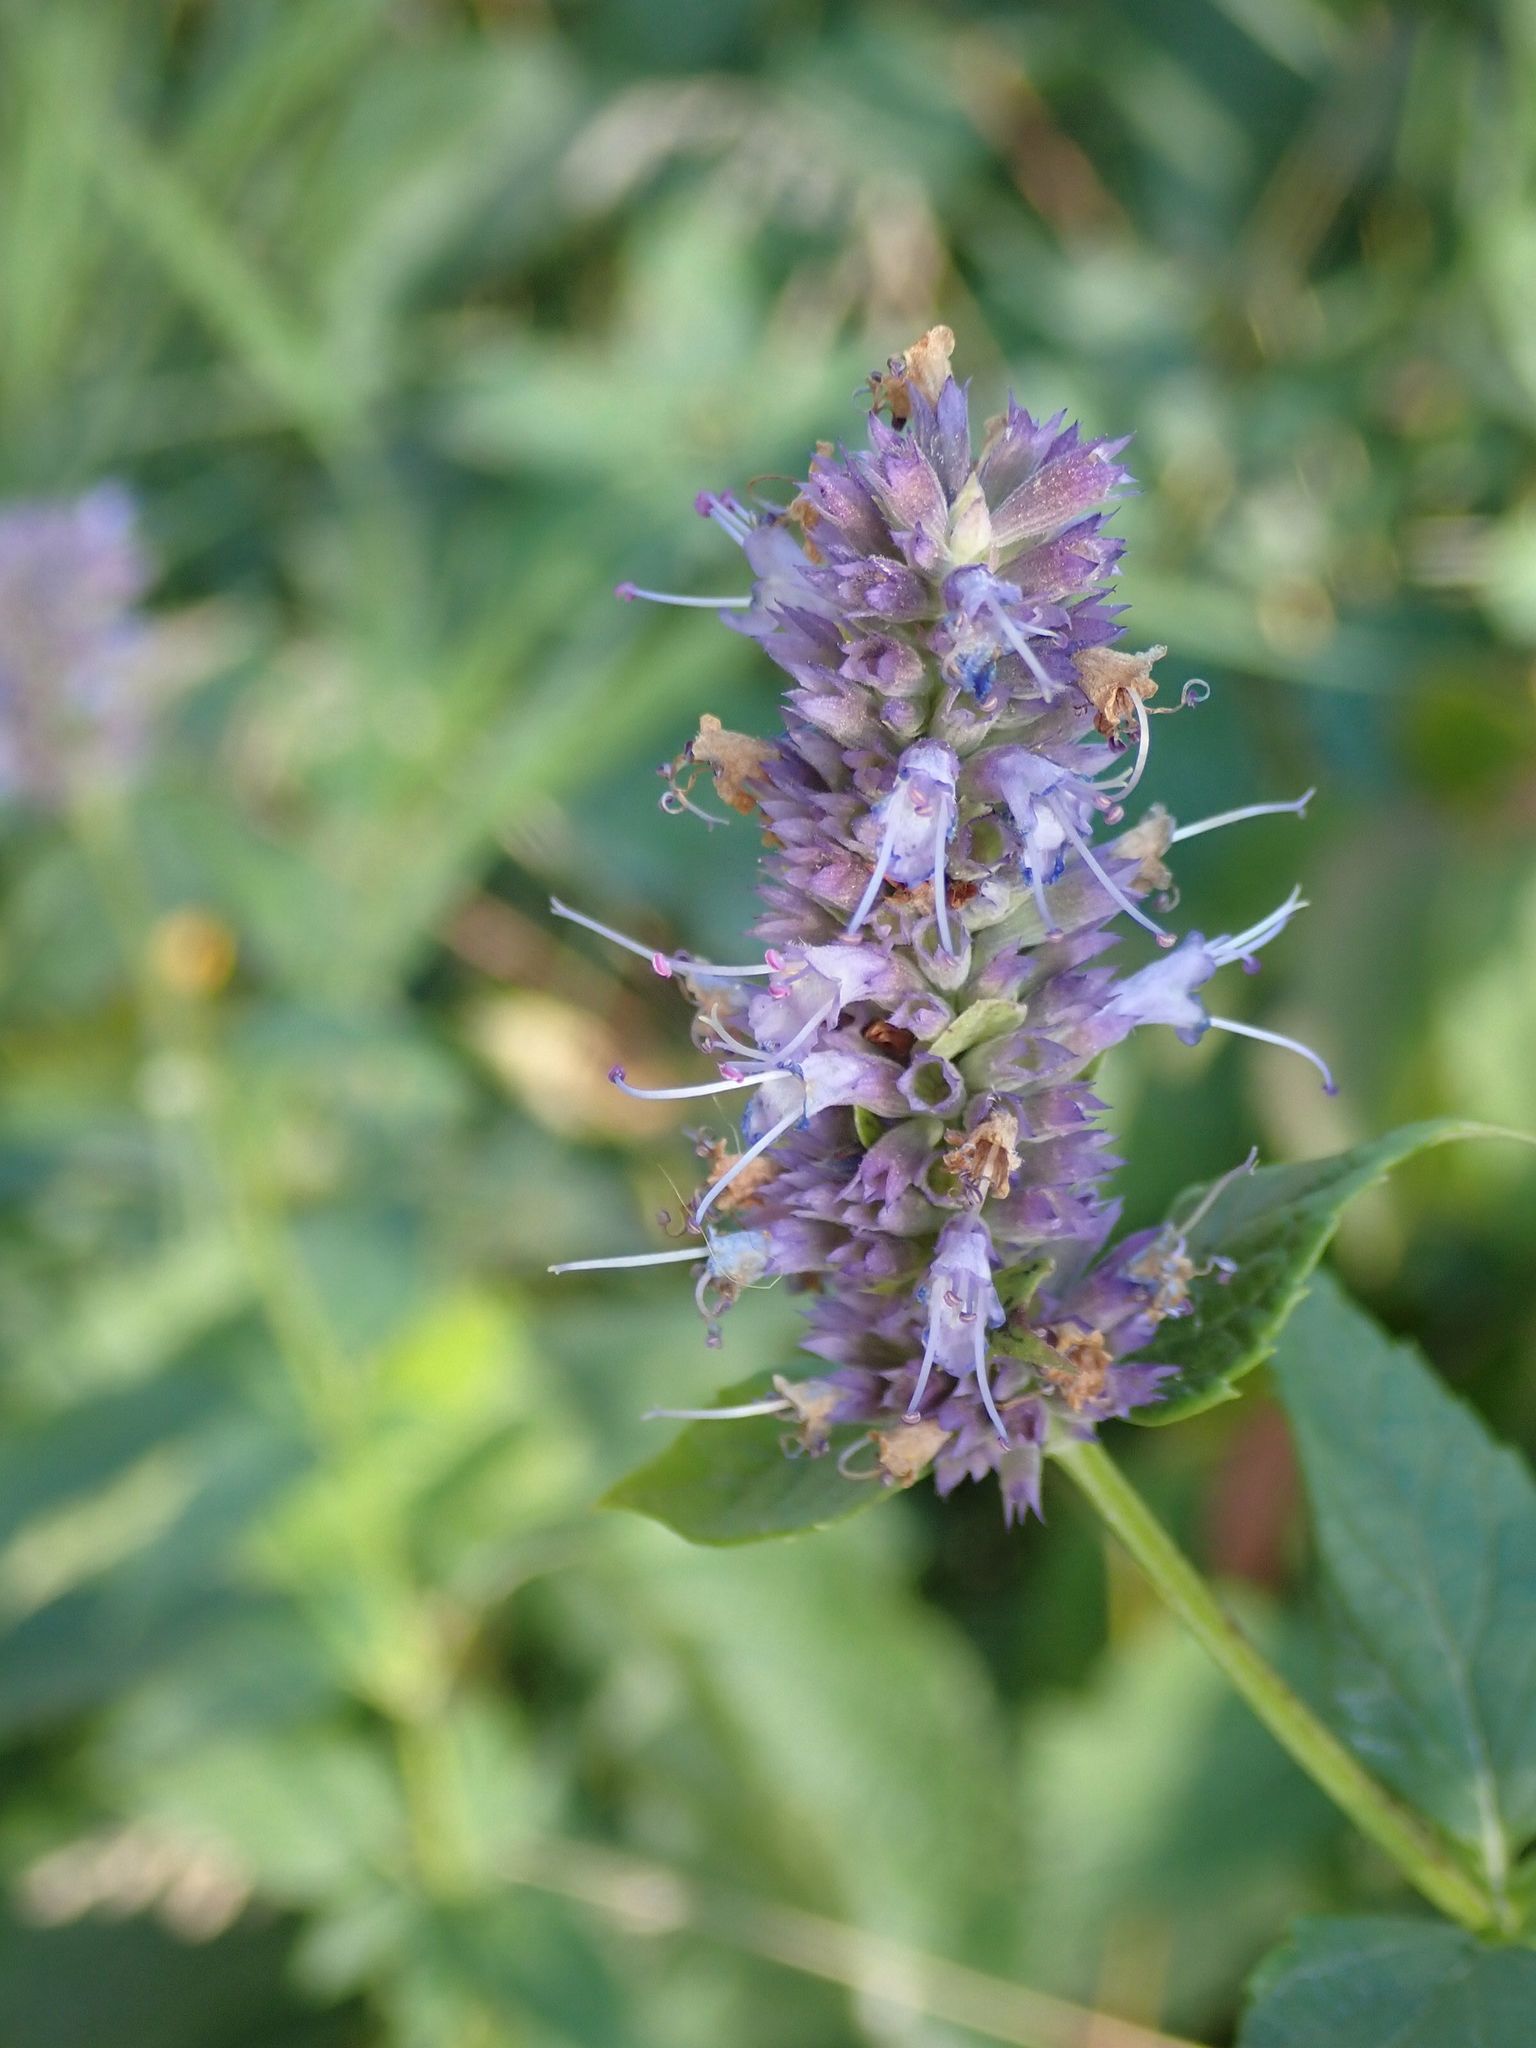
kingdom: Plantae
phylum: Tracheophyta
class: Magnoliopsida
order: Lamiales
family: Lamiaceae
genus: Agastache
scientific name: Agastache foeniculum
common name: Anise hyssop
